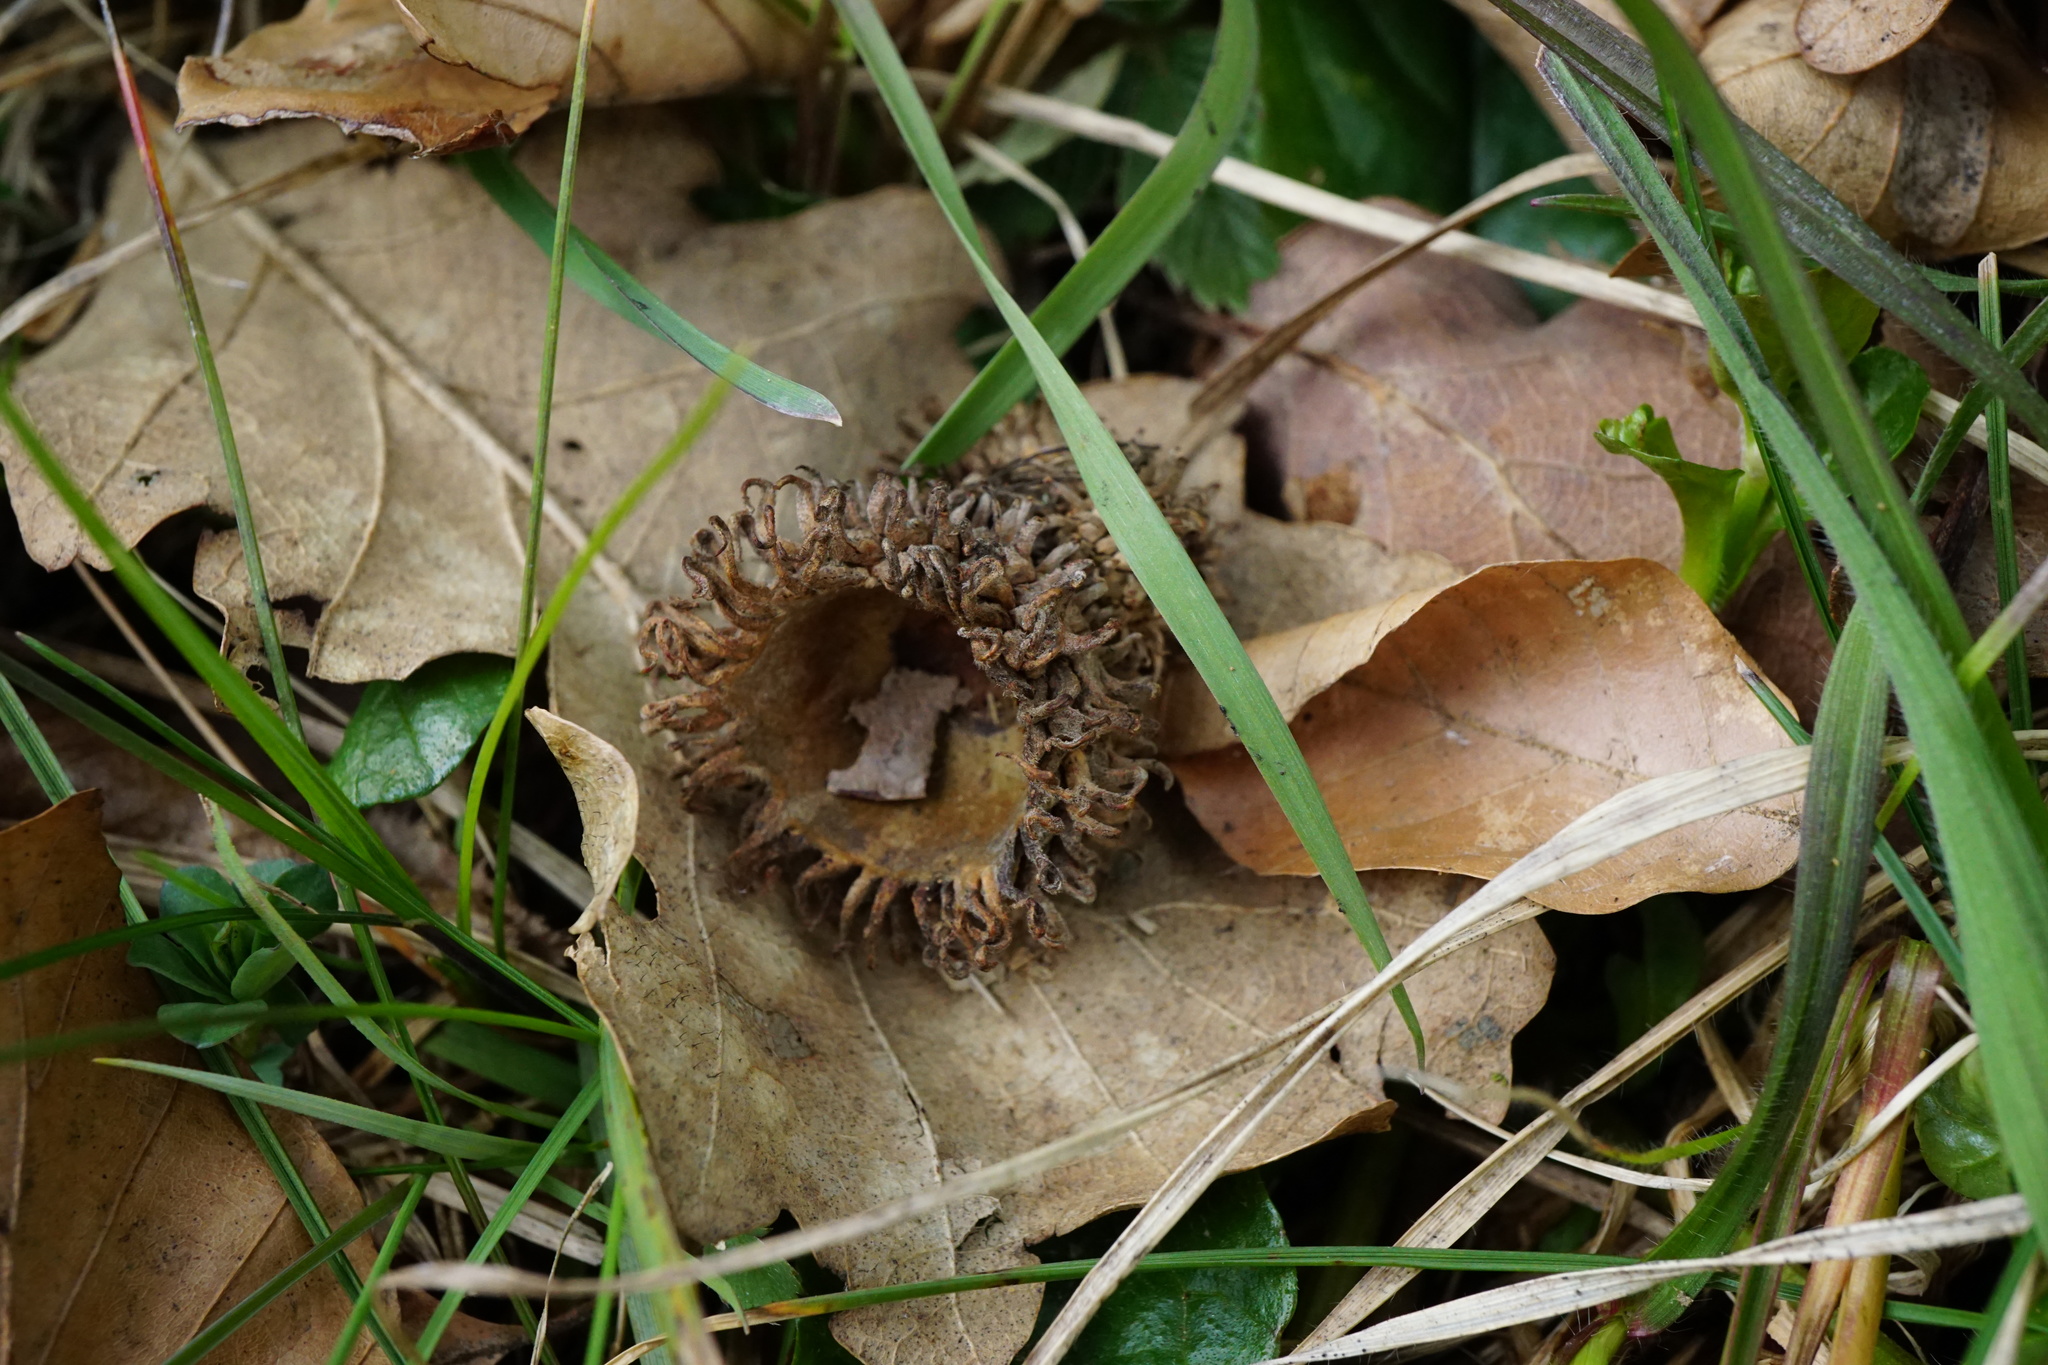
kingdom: Plantae
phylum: Tracheophyta
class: Magnoliopsida
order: Fagales
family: Fagaceae
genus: Quercus
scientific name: Quercus cerris
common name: Turkey oak
